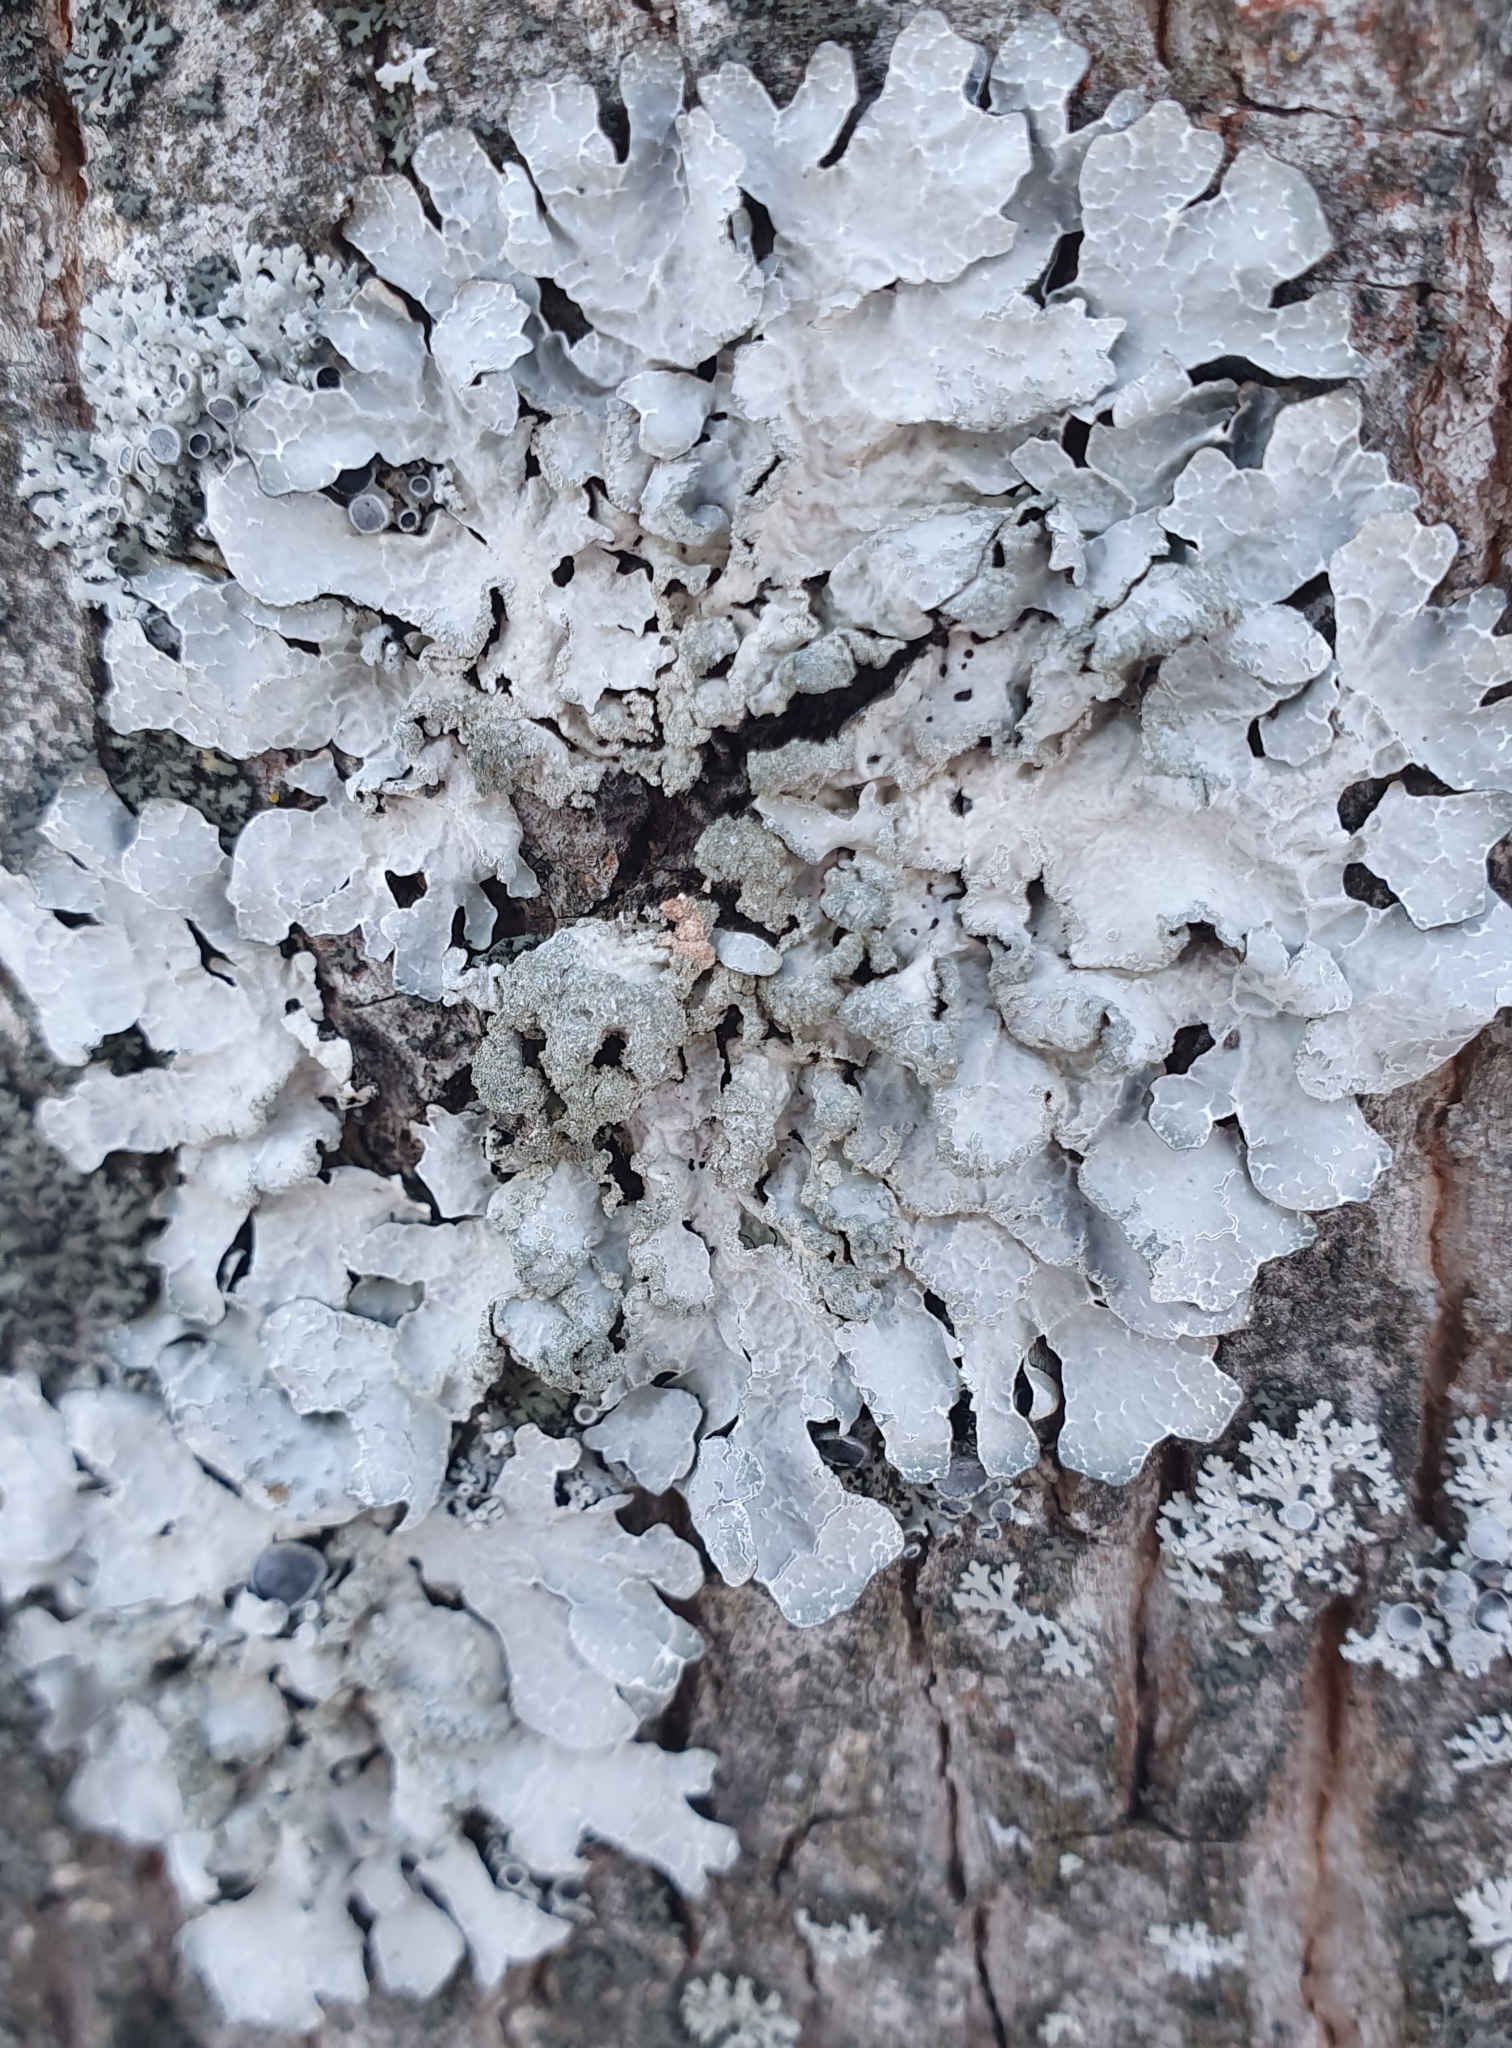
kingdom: Fungi
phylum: Ascomycota
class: Lecanoromycetes
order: Lecanorales
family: Parmeliaceae
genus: Parmelia
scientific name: Parmelia sulcata
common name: Netted shield lichen
